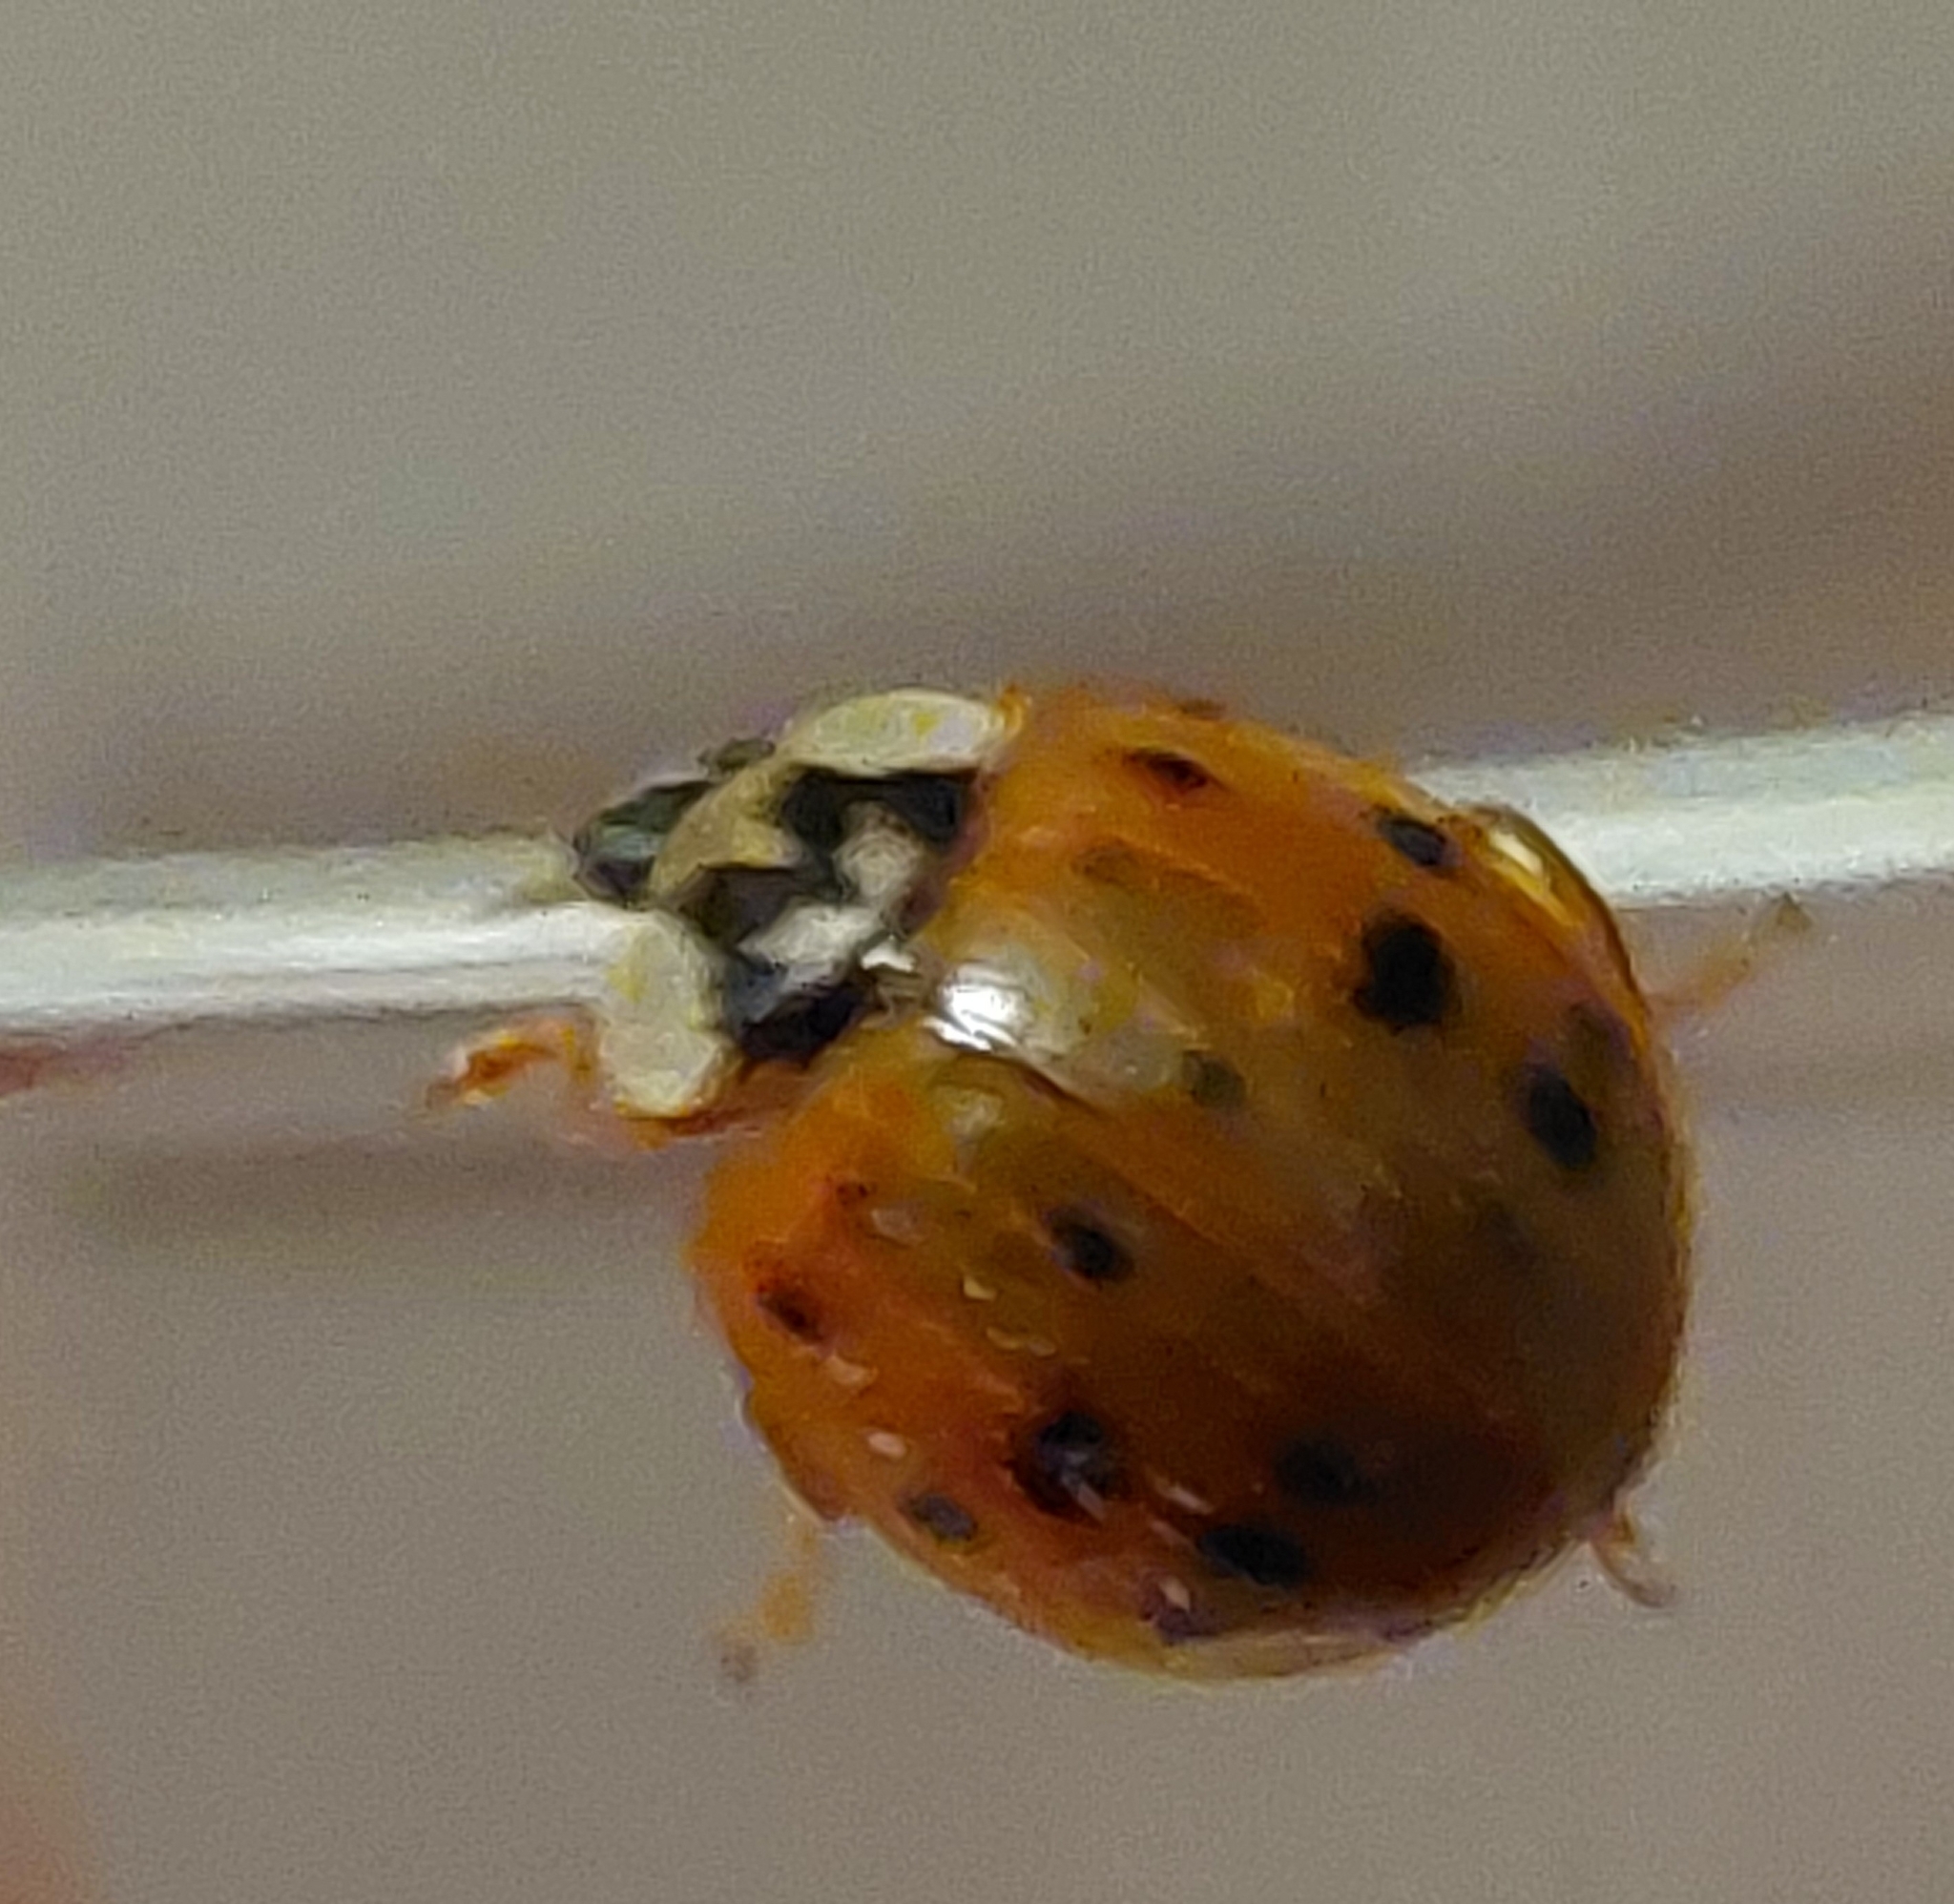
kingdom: Animalia
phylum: Arthropoda
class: Insecta
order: Coleoptera
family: Coccinellidae
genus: Harmonia
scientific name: Harmonia axyridis
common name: Harlequin ladybird
